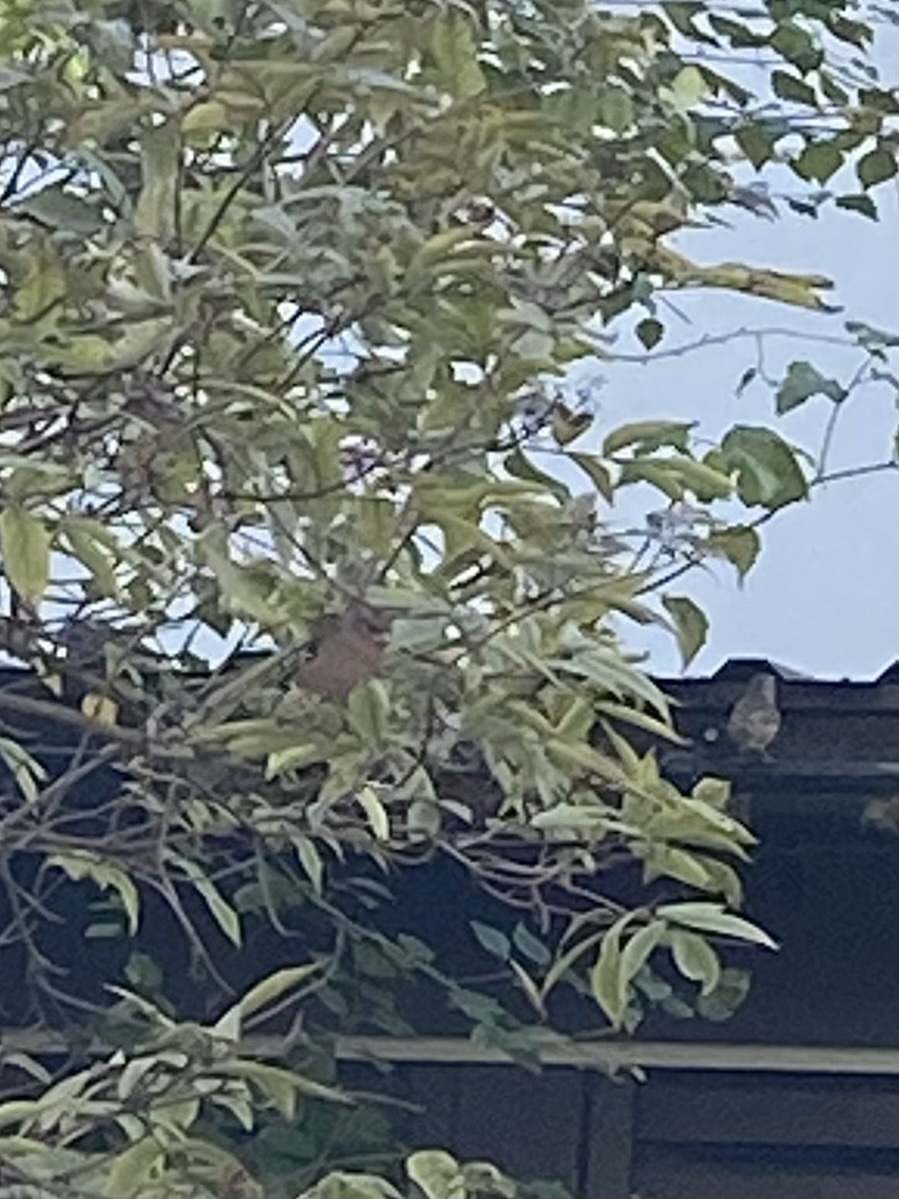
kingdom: Animalia
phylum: Chordata
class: Aves
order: Passeriformes
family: Fringillidae
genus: Fringilla
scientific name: Fringilla coelebs
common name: Common chaffinch
